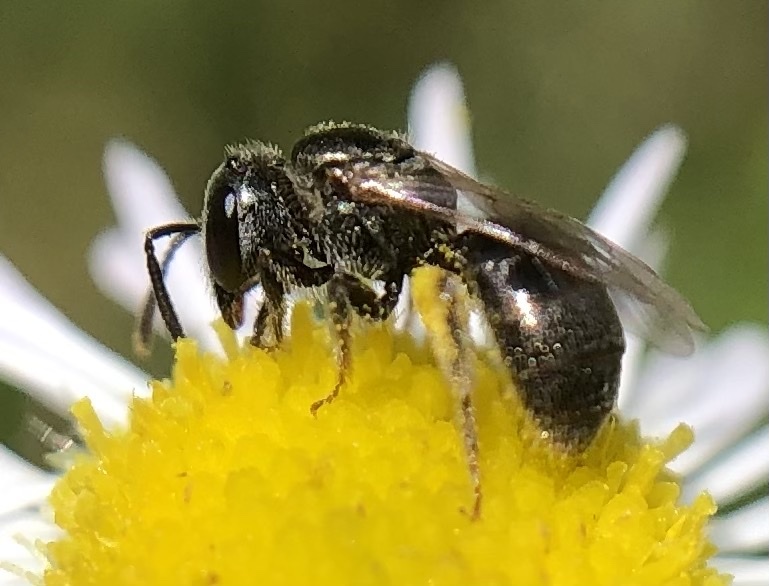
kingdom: Animalia
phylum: Arthropoda
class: Insecta
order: Hymenoptera
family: Halictidae
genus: Lasioglossum
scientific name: Lasioglossum imitatum
